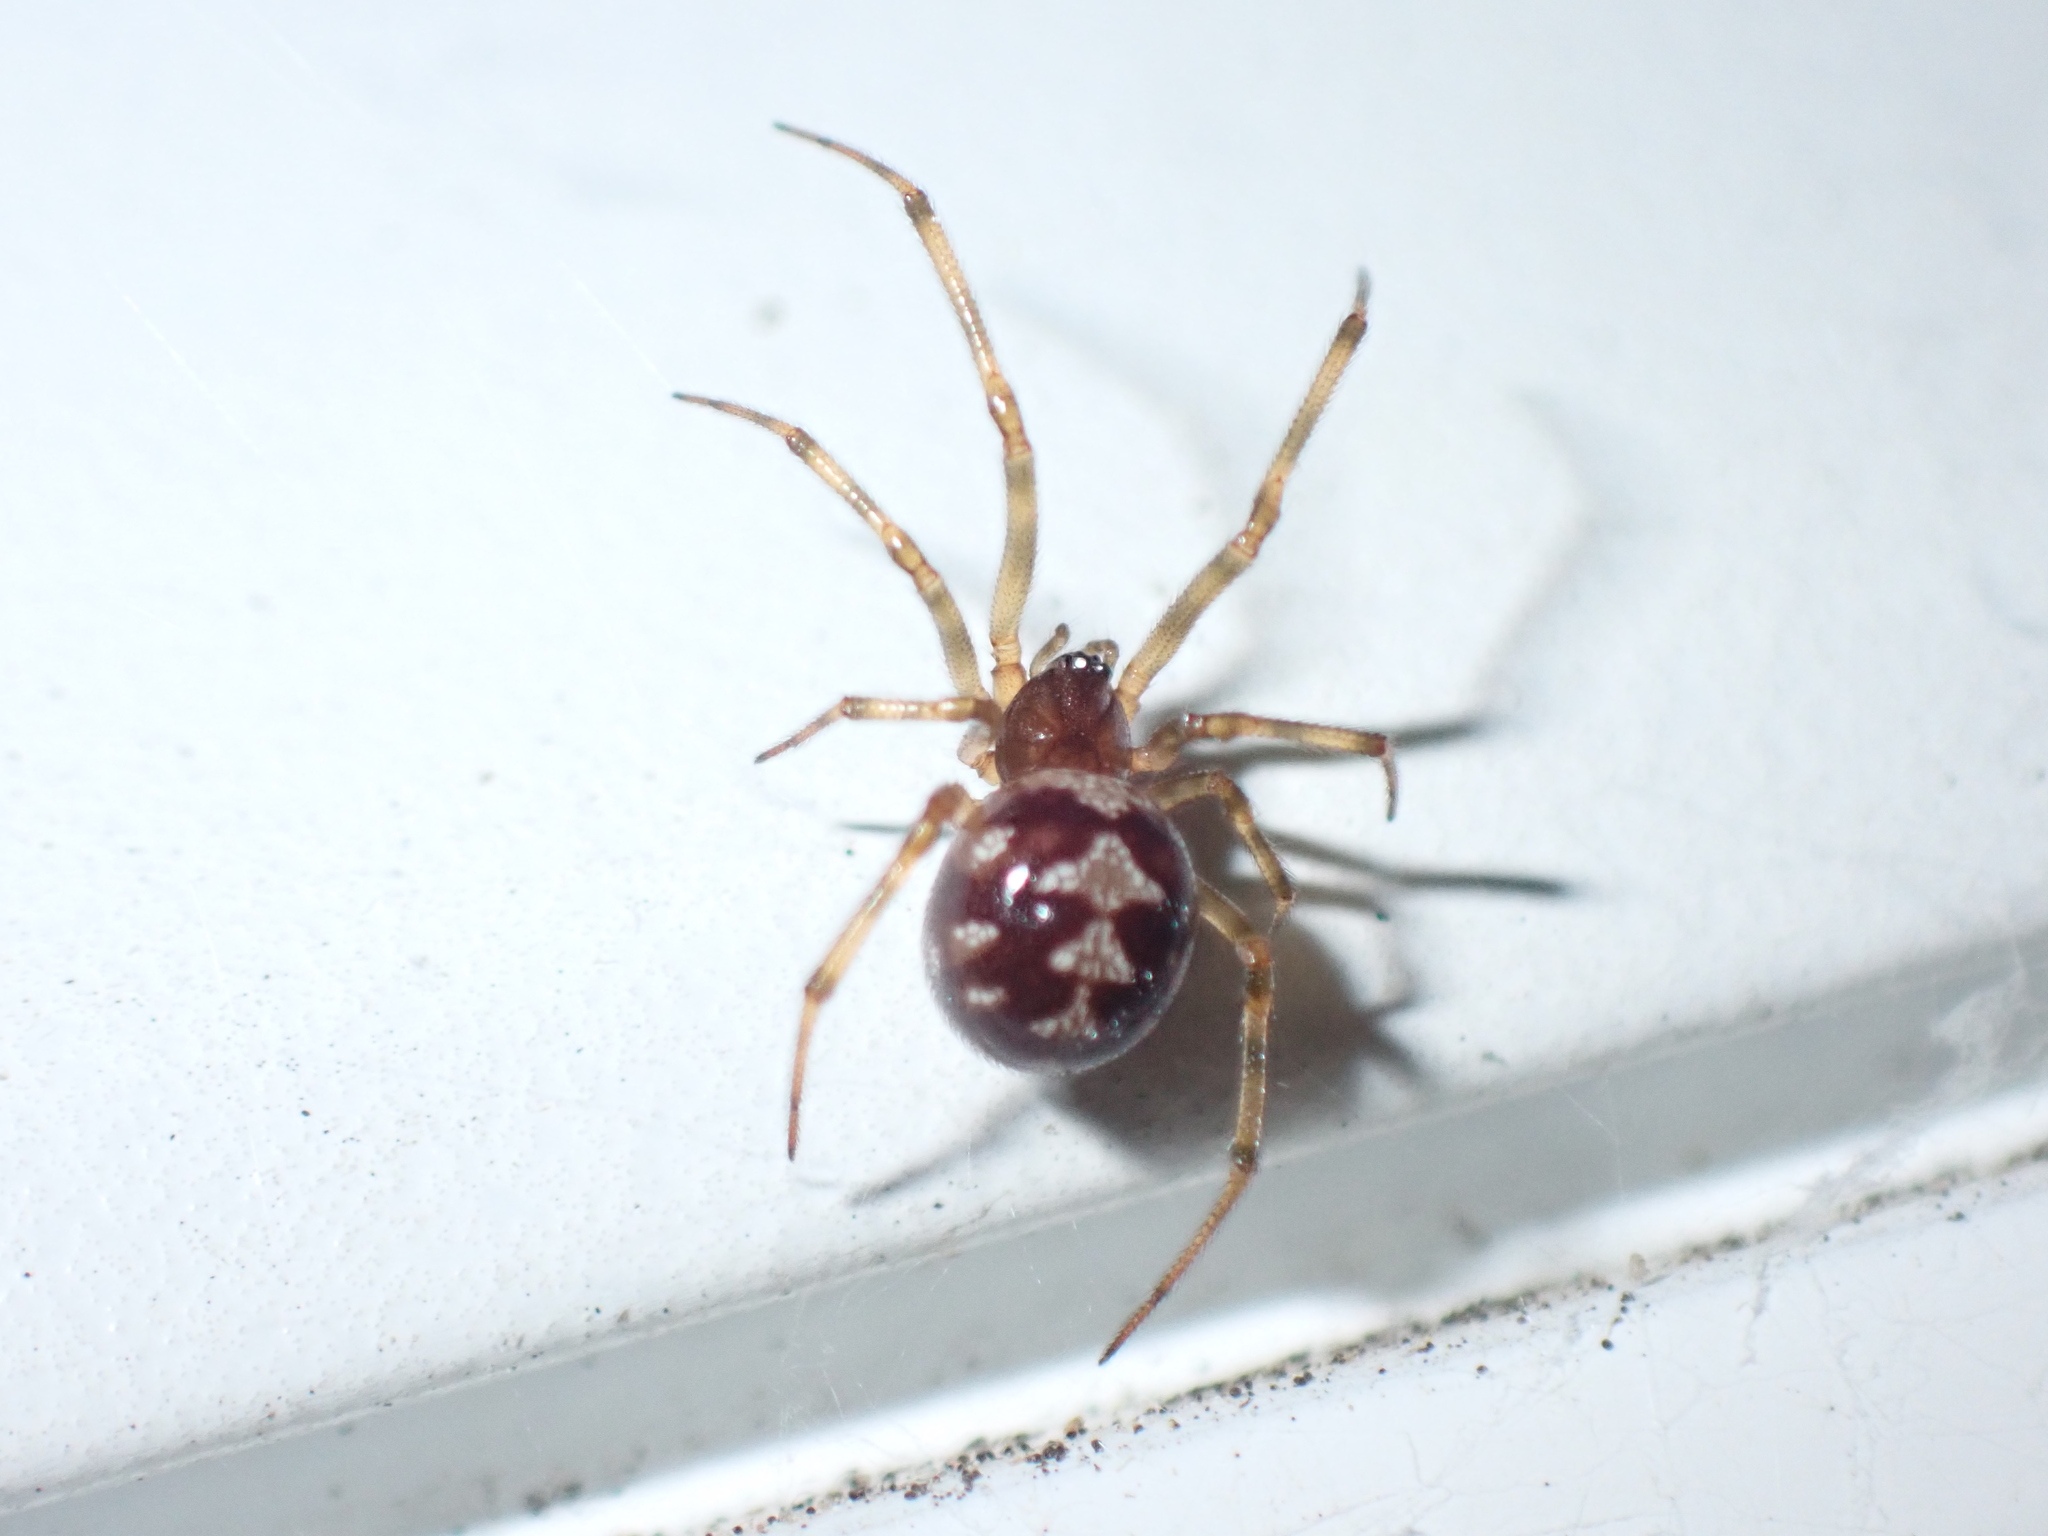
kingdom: Animalia
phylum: Arthropoda
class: Arachnida
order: Araneae
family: Theridiidae
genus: Steatoda
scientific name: Steatoda triangulosa
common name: Triangulate bud spider
